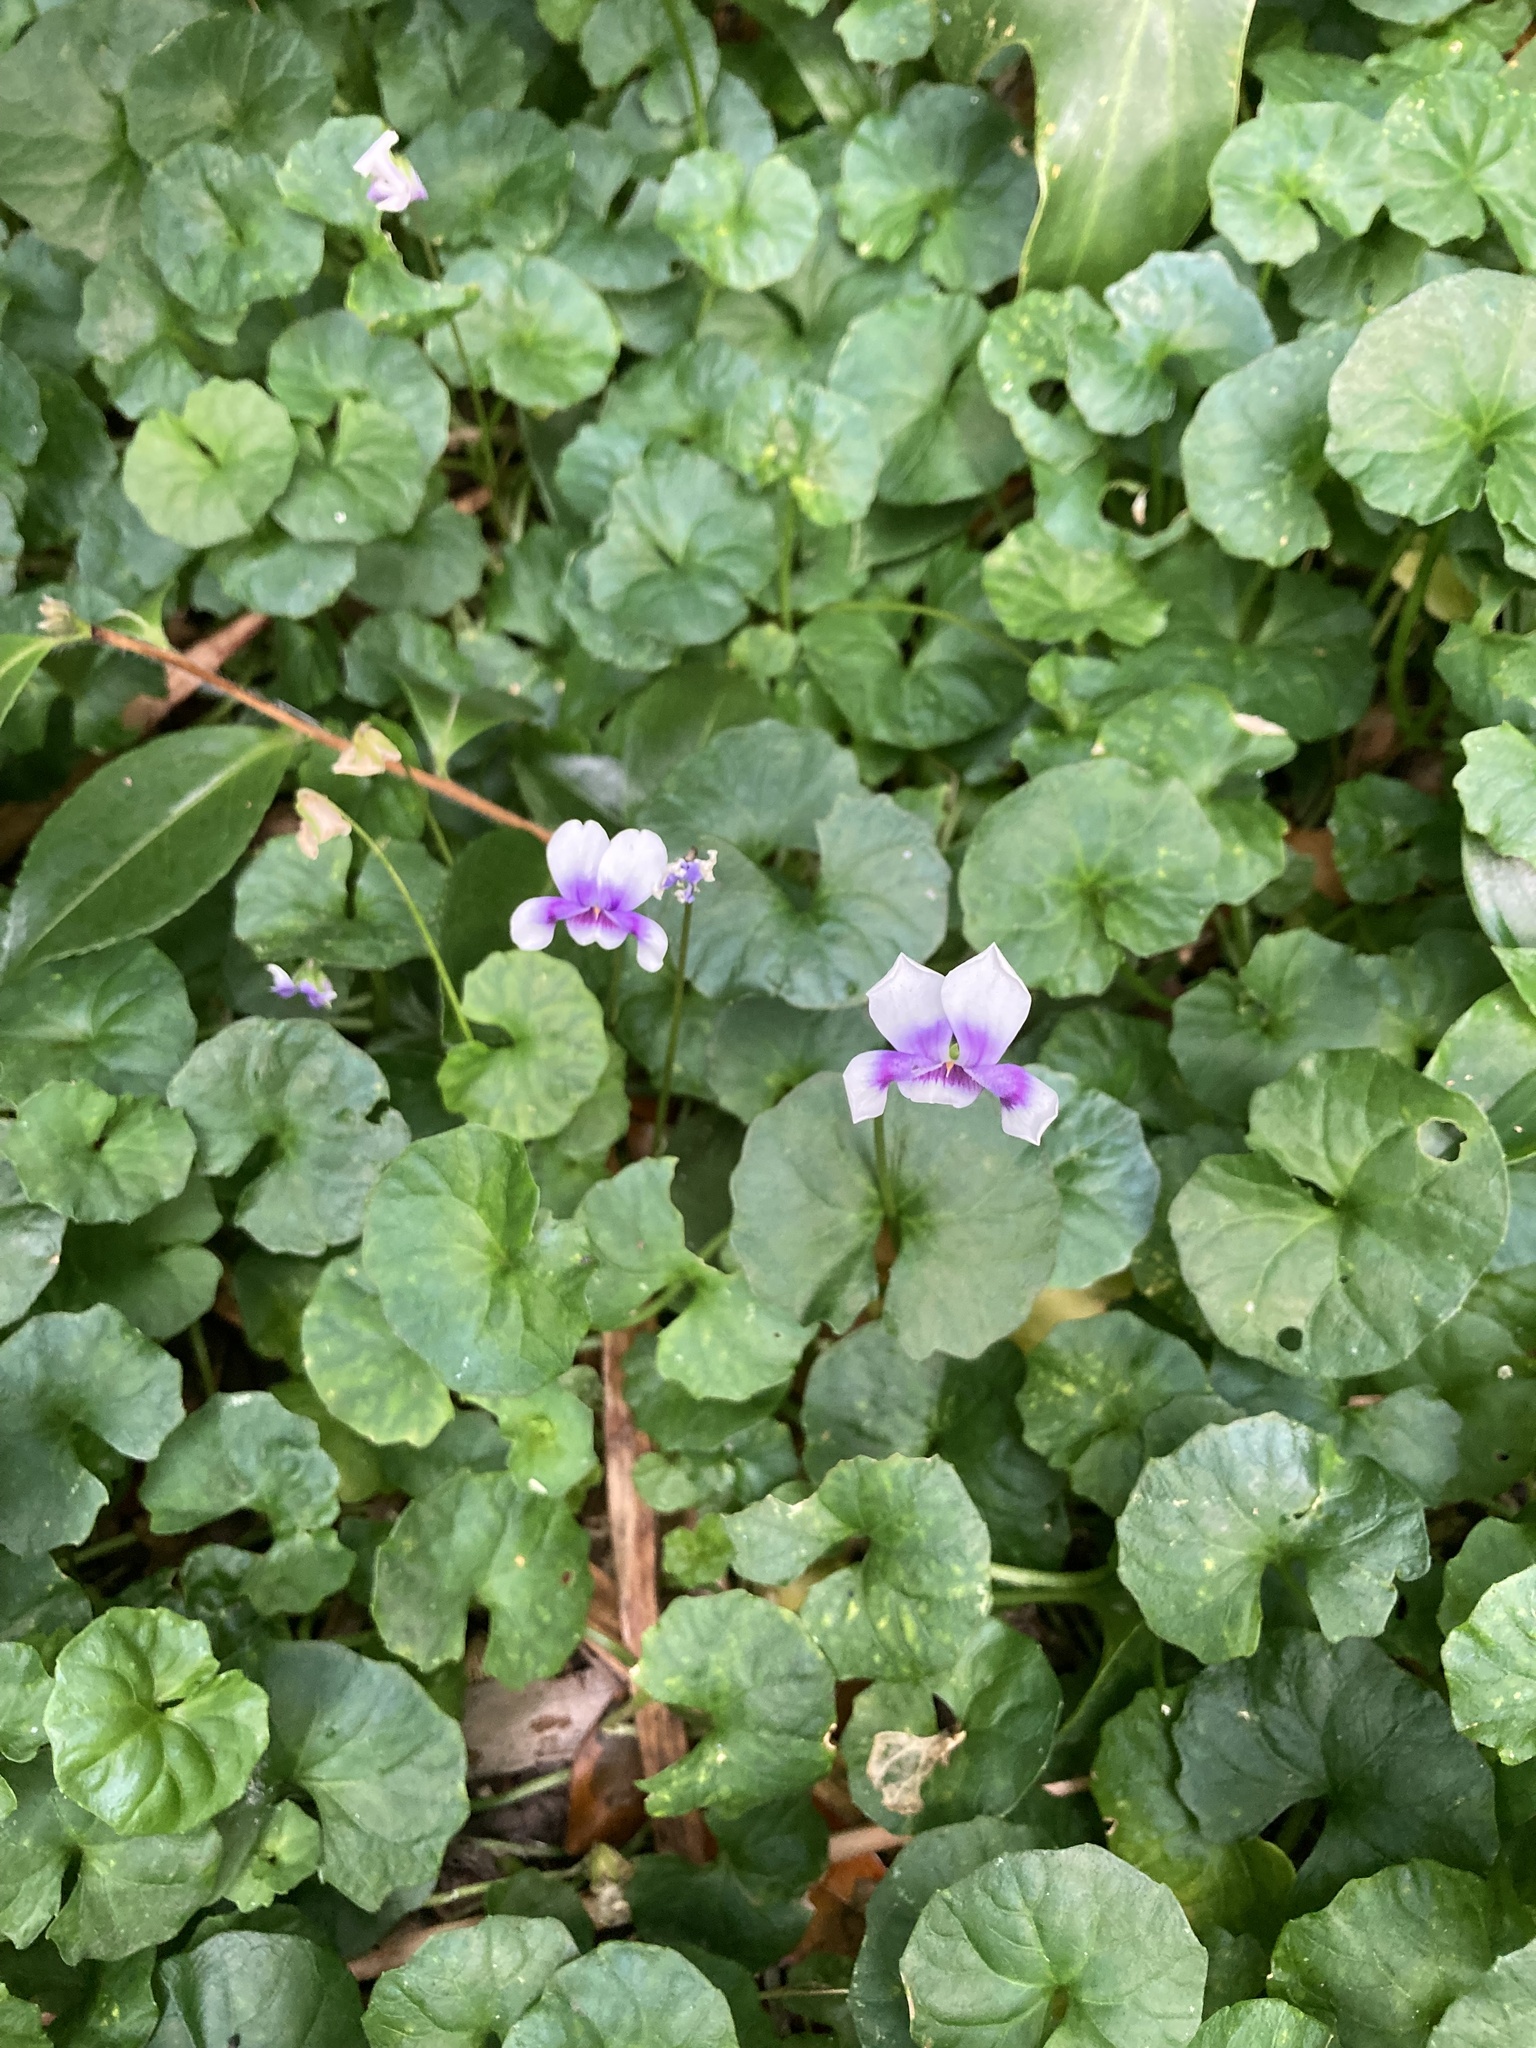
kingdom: Plantae
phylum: Tracheophyta
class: Magnoliopsida
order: Malpighiales
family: Violaceae
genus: Viola
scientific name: Viola banksii
